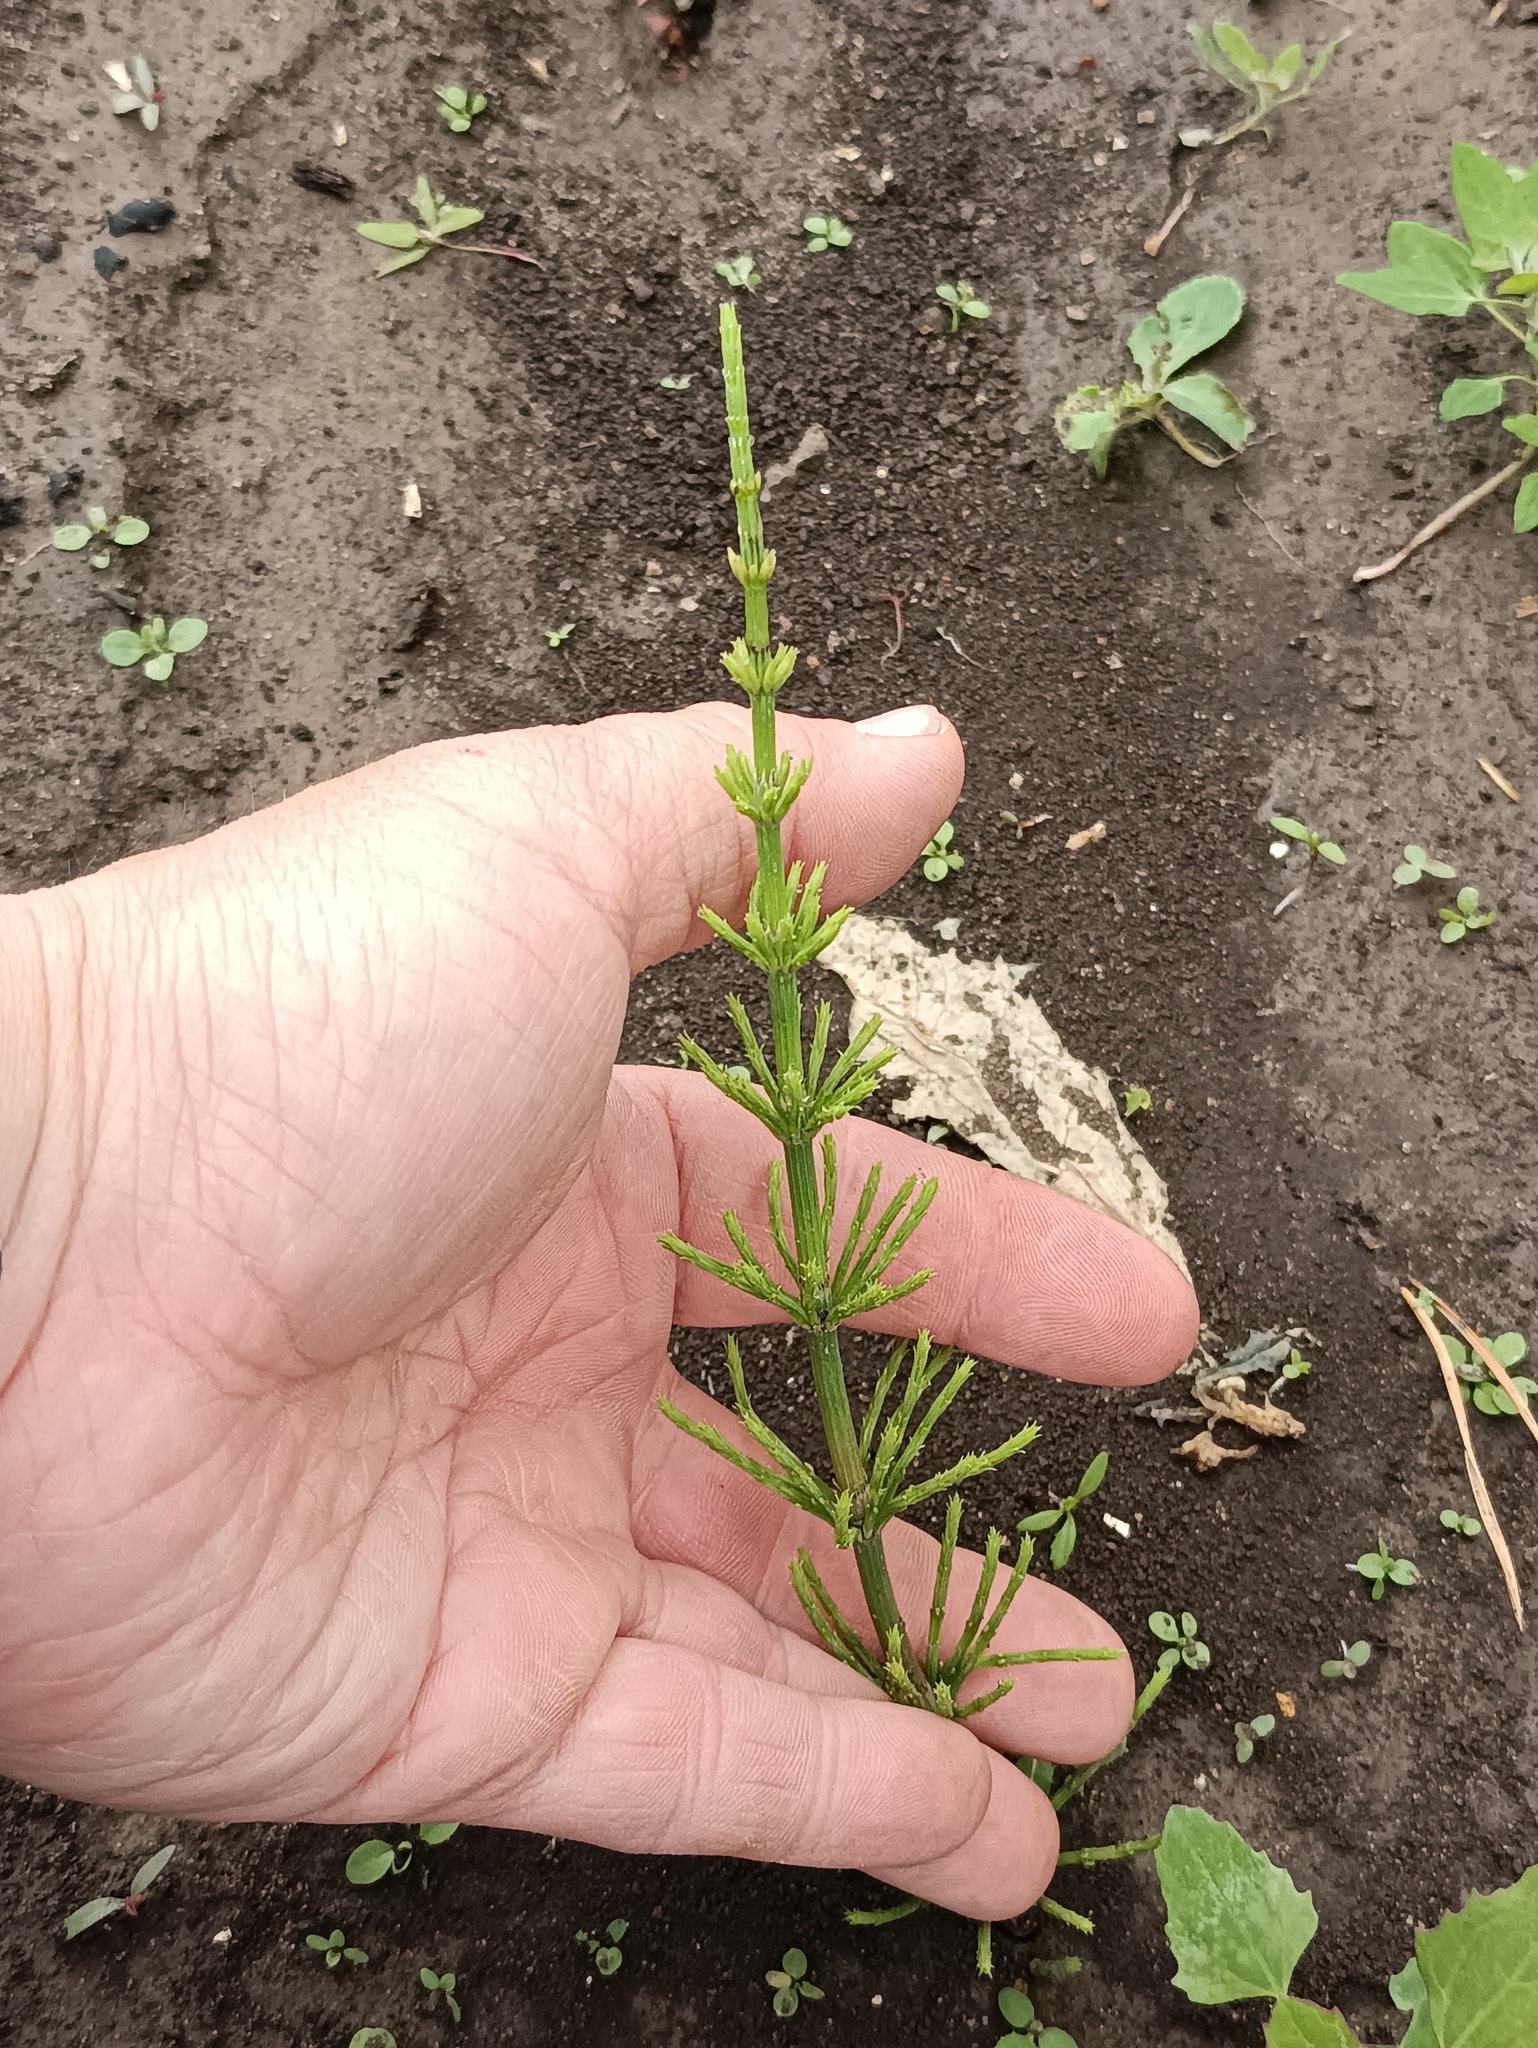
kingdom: Plantae
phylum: Tracheophyta
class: Polypodiopsida
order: Equisetales
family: Equisetaceae
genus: Equisetum
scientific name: Equisetum arvense
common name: Field horsetail
